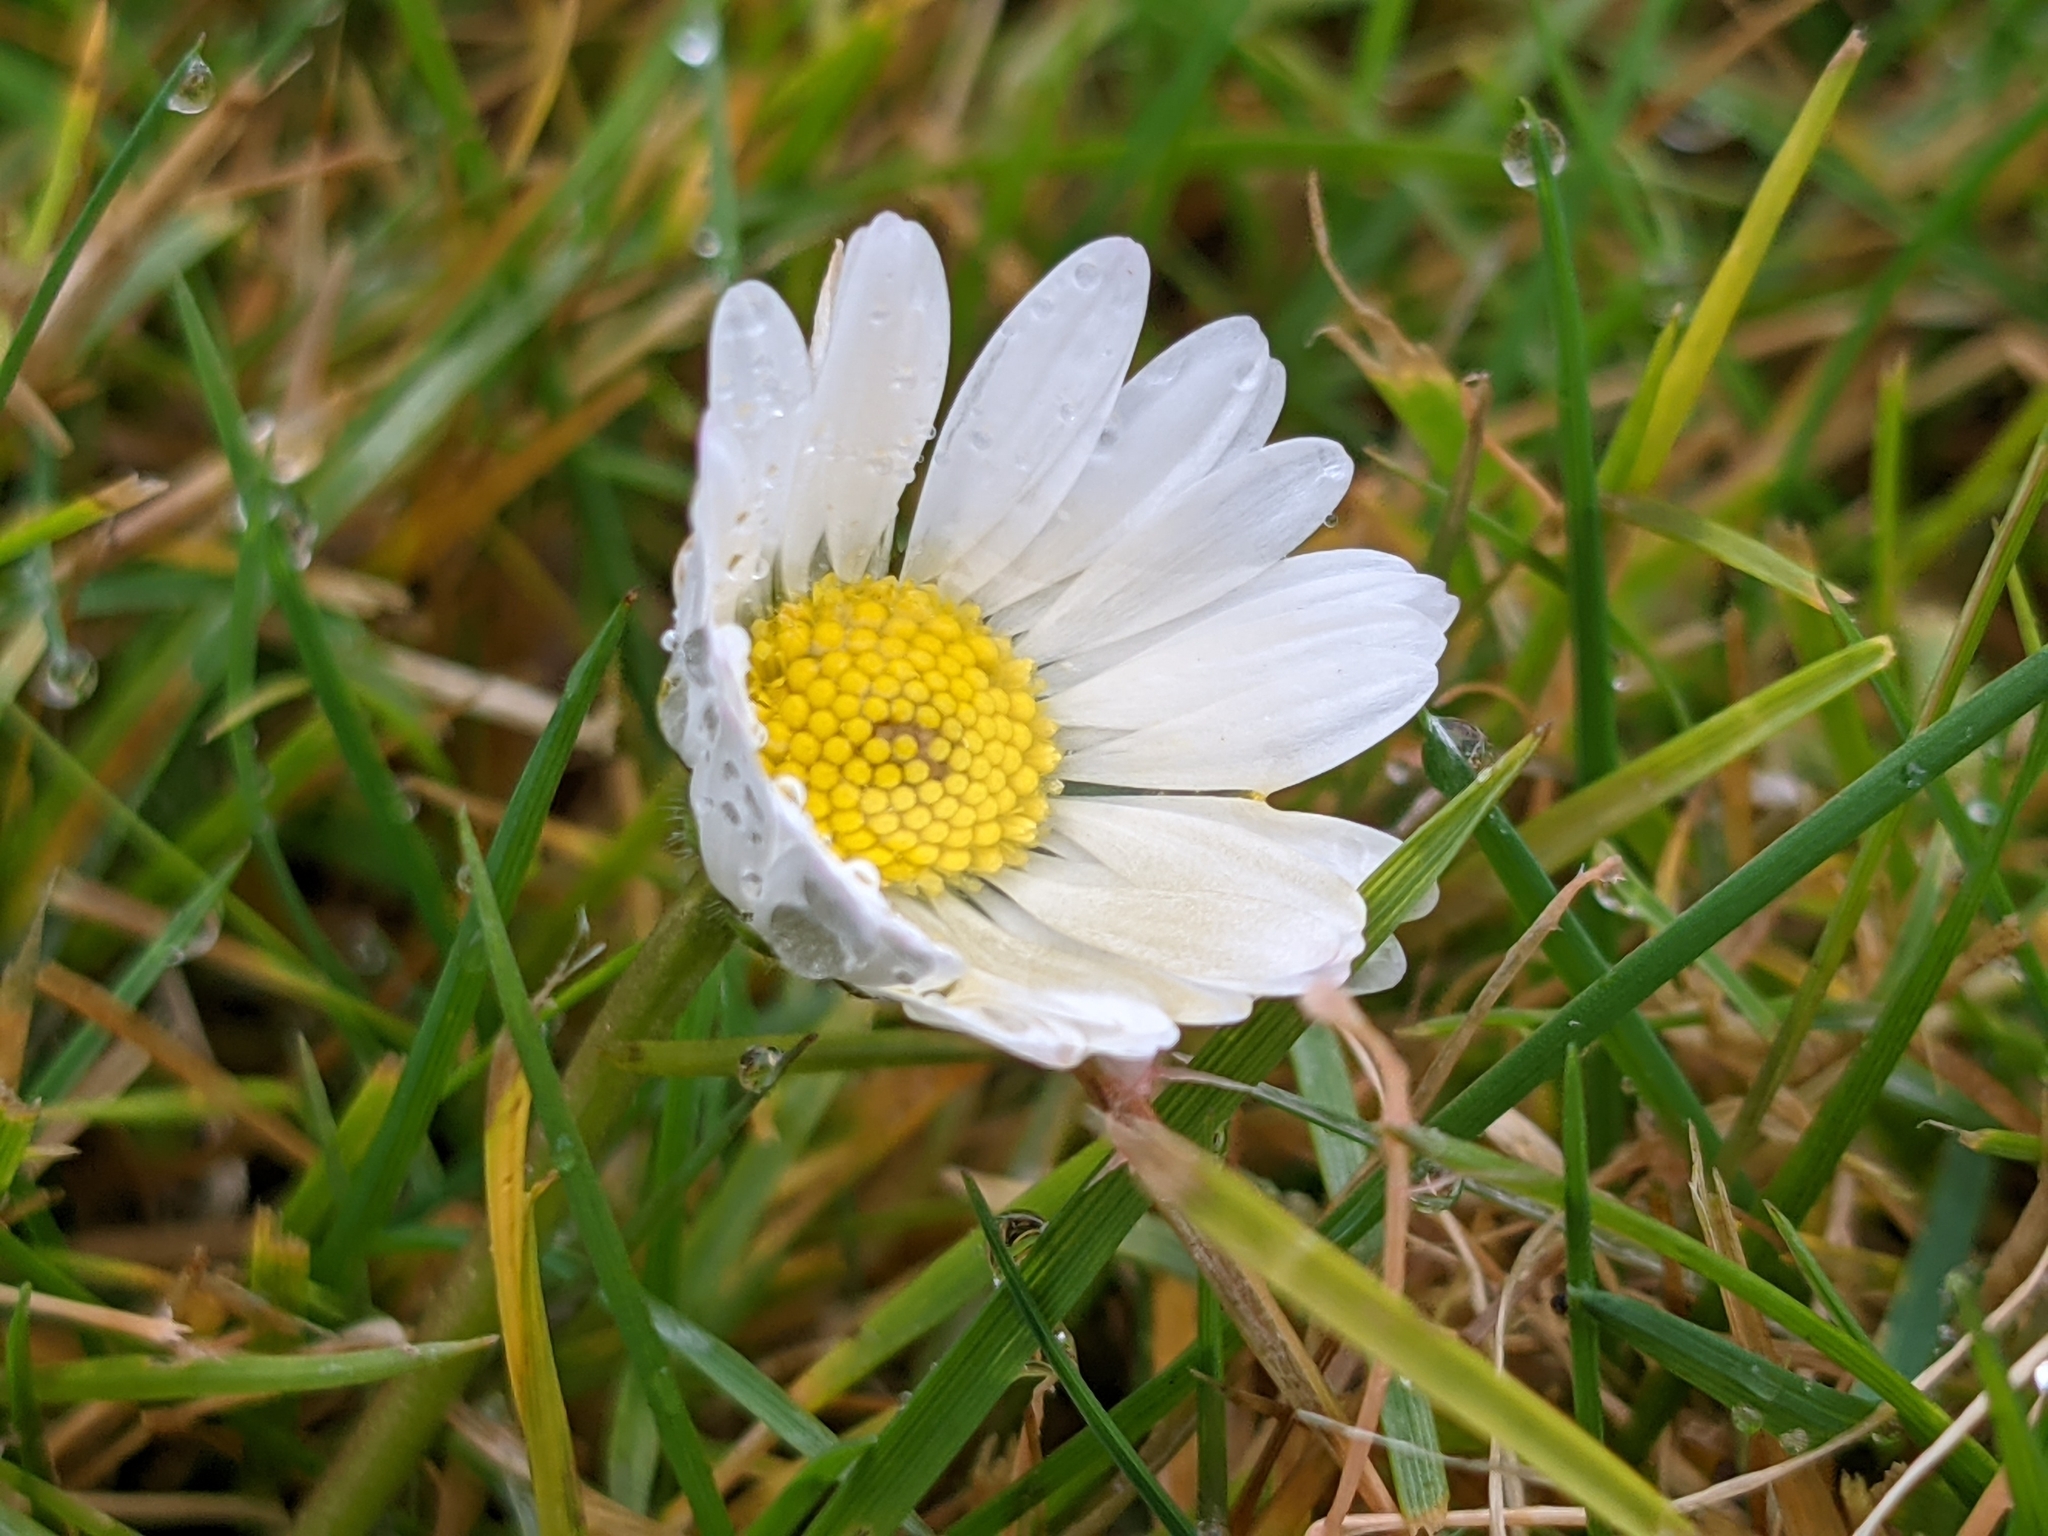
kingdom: Plantae
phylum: Tracheophyta
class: Magnoliopsida
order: Asterales
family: Asteraceae
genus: Bellis
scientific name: Bellis perennis
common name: Lawndaisy
